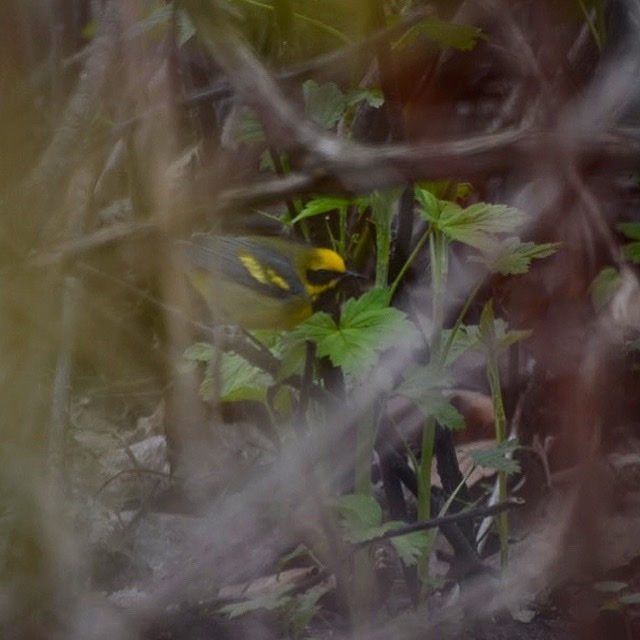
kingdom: Animalia
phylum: Chordata
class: Aves
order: Passeriformes
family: Parulidae
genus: Vermivora
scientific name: Vermivora
